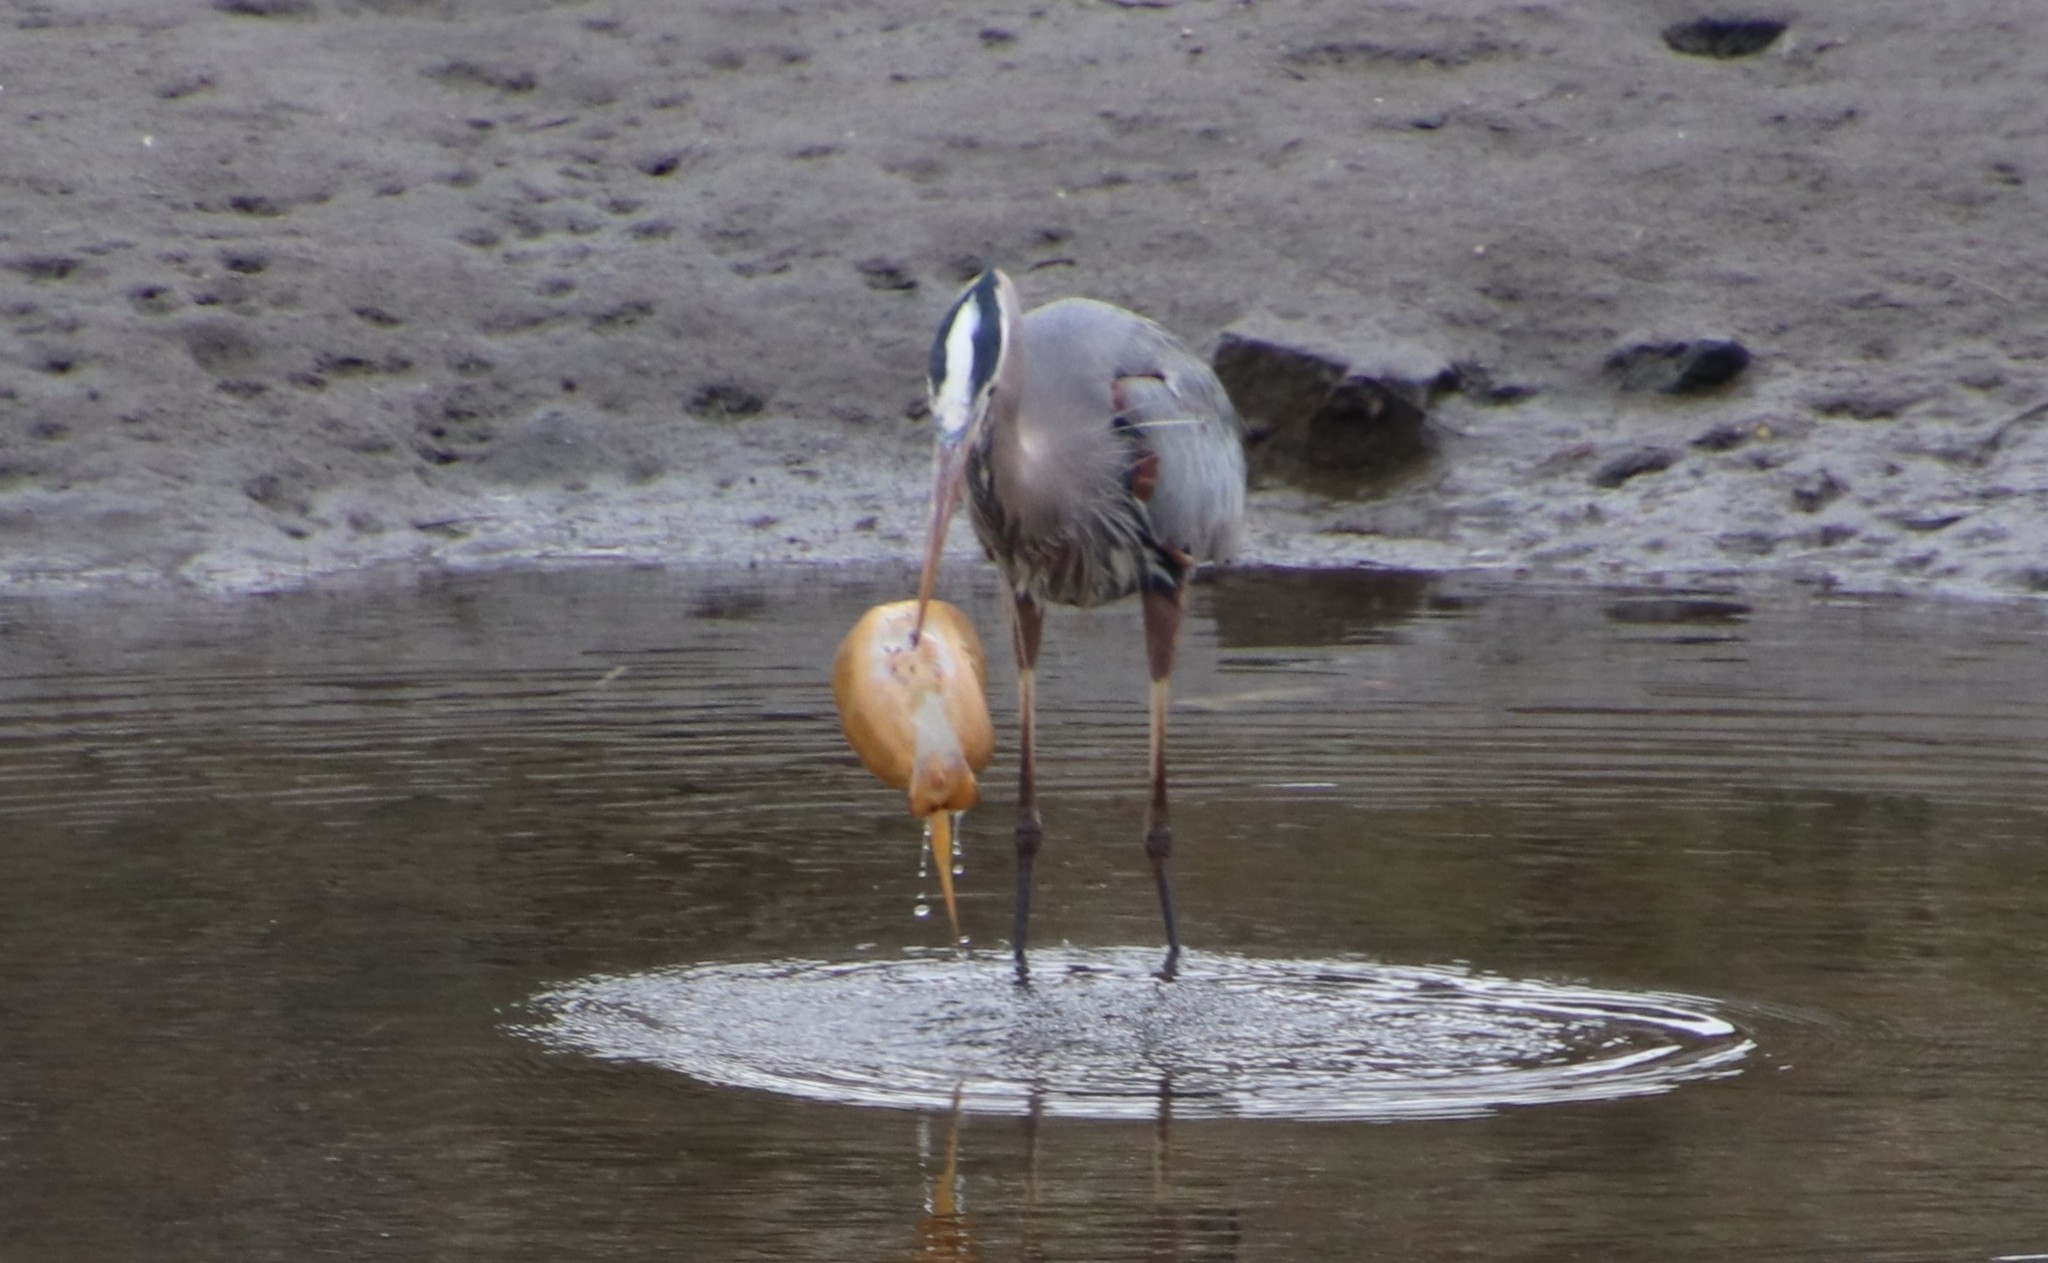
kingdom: Animalia
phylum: Chordata
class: Aves
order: Pelecaniformes
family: Ardeidae
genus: Ardea
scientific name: Ardea herodias
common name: Great blue heron
